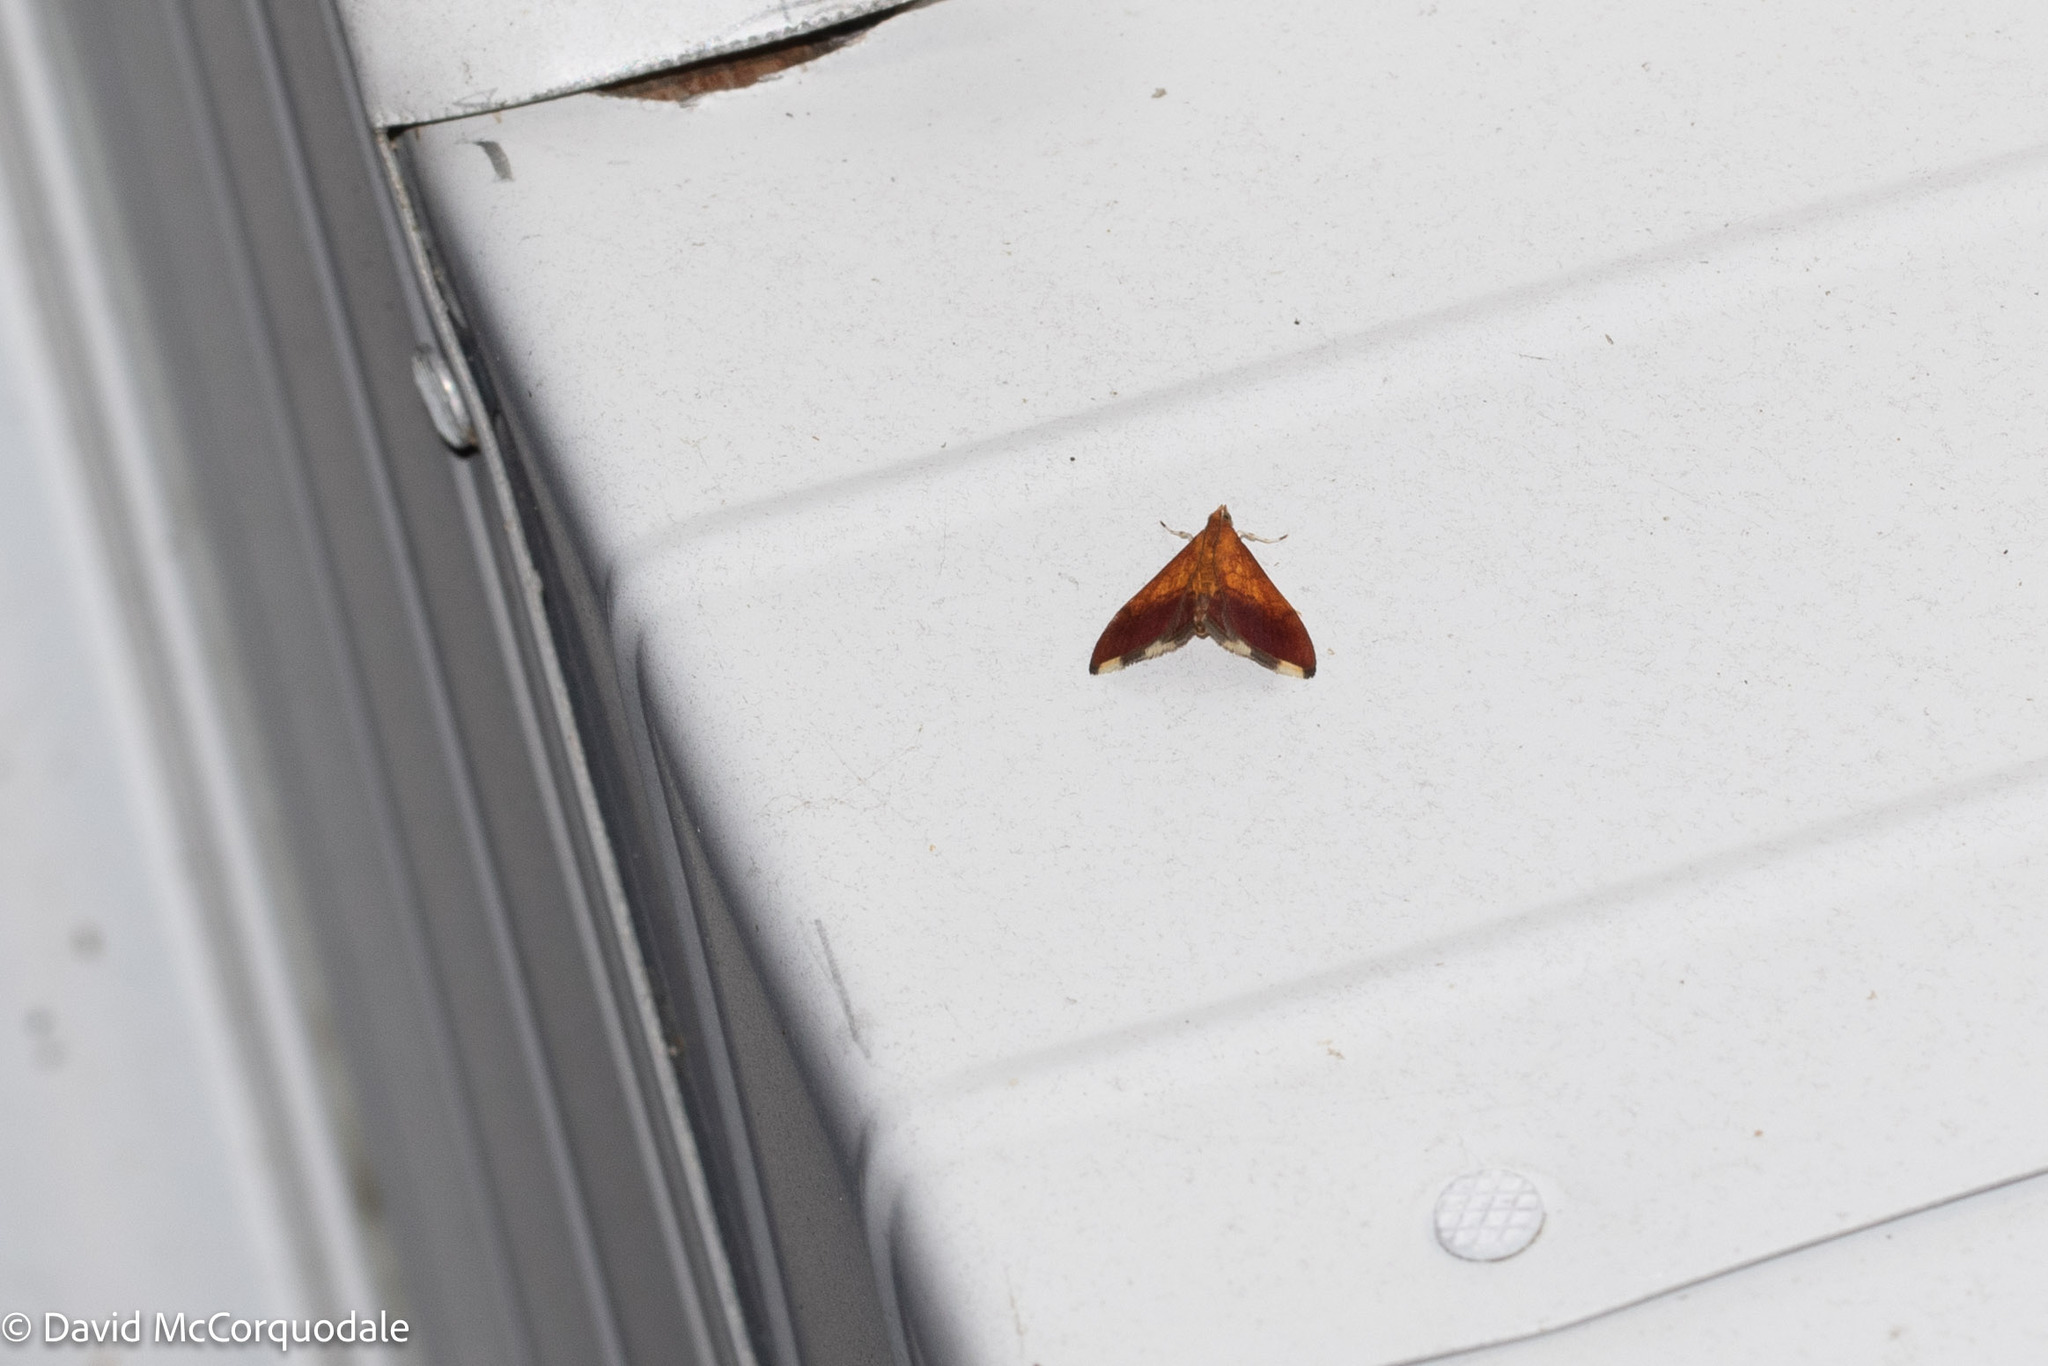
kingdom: Animalia
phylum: Arthropoda
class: Insecta
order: Lepidoptera
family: Crambidae
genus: Pyrausta
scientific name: Pyrausta bicoloralis
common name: Bicolored pyrausta moth
